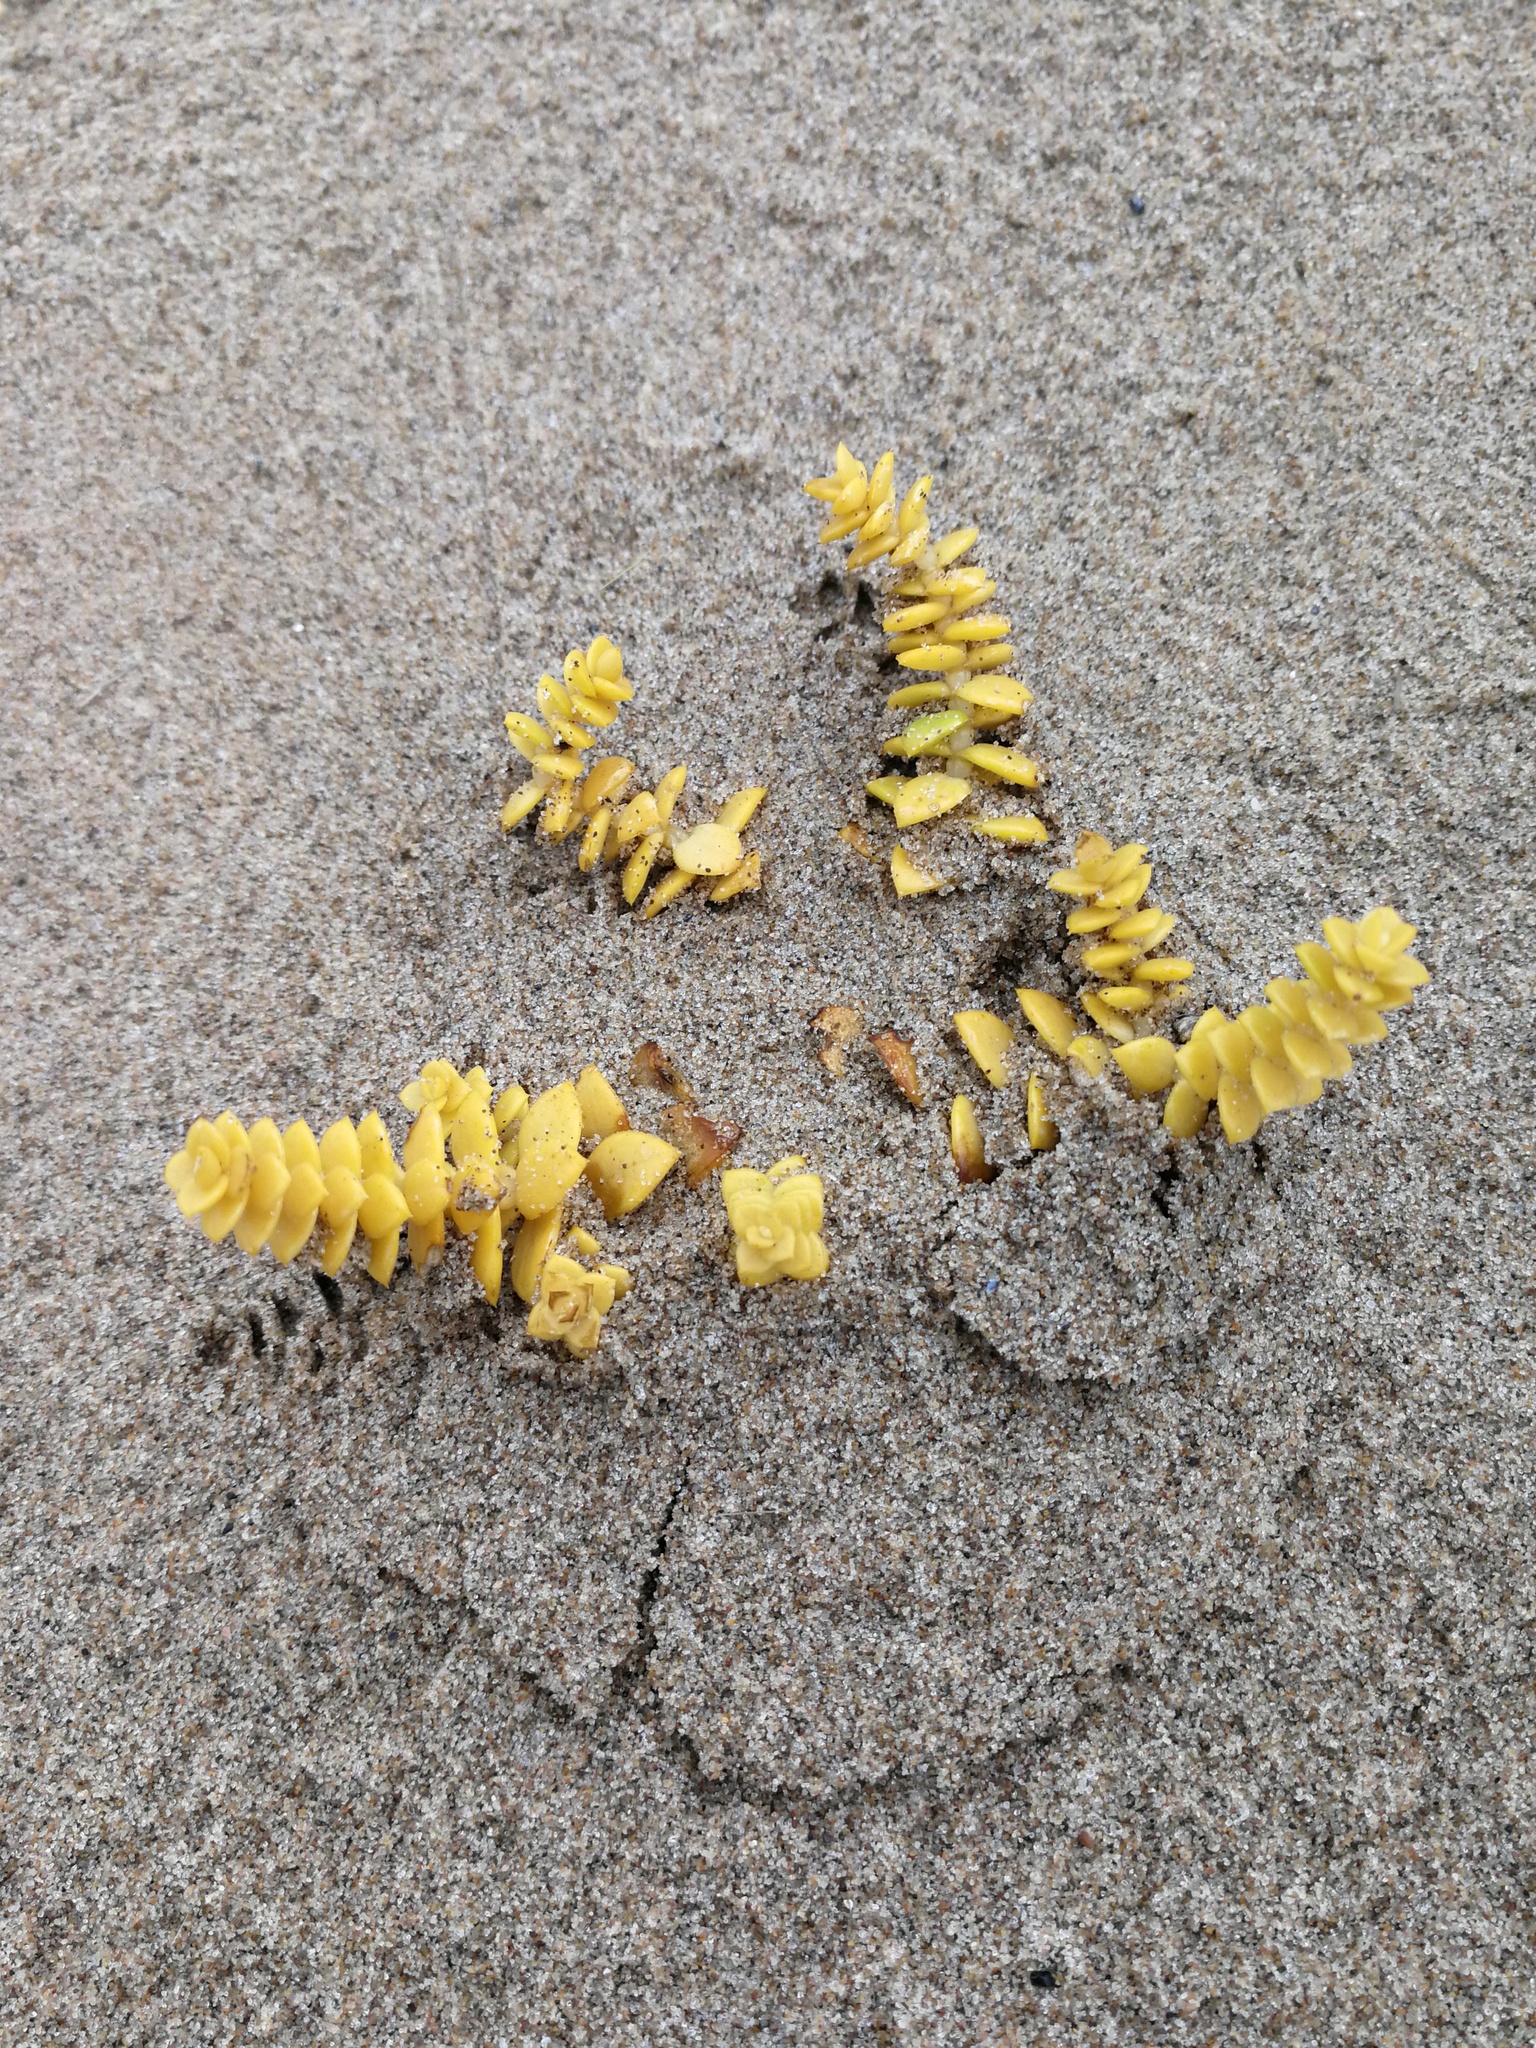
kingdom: Plantae
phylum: Tracheophyta
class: Magnoliopsida
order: Caryophyllales
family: Caryophyllaceae
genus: Honckenya
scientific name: Honckenya peploides
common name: Sea sandwort
